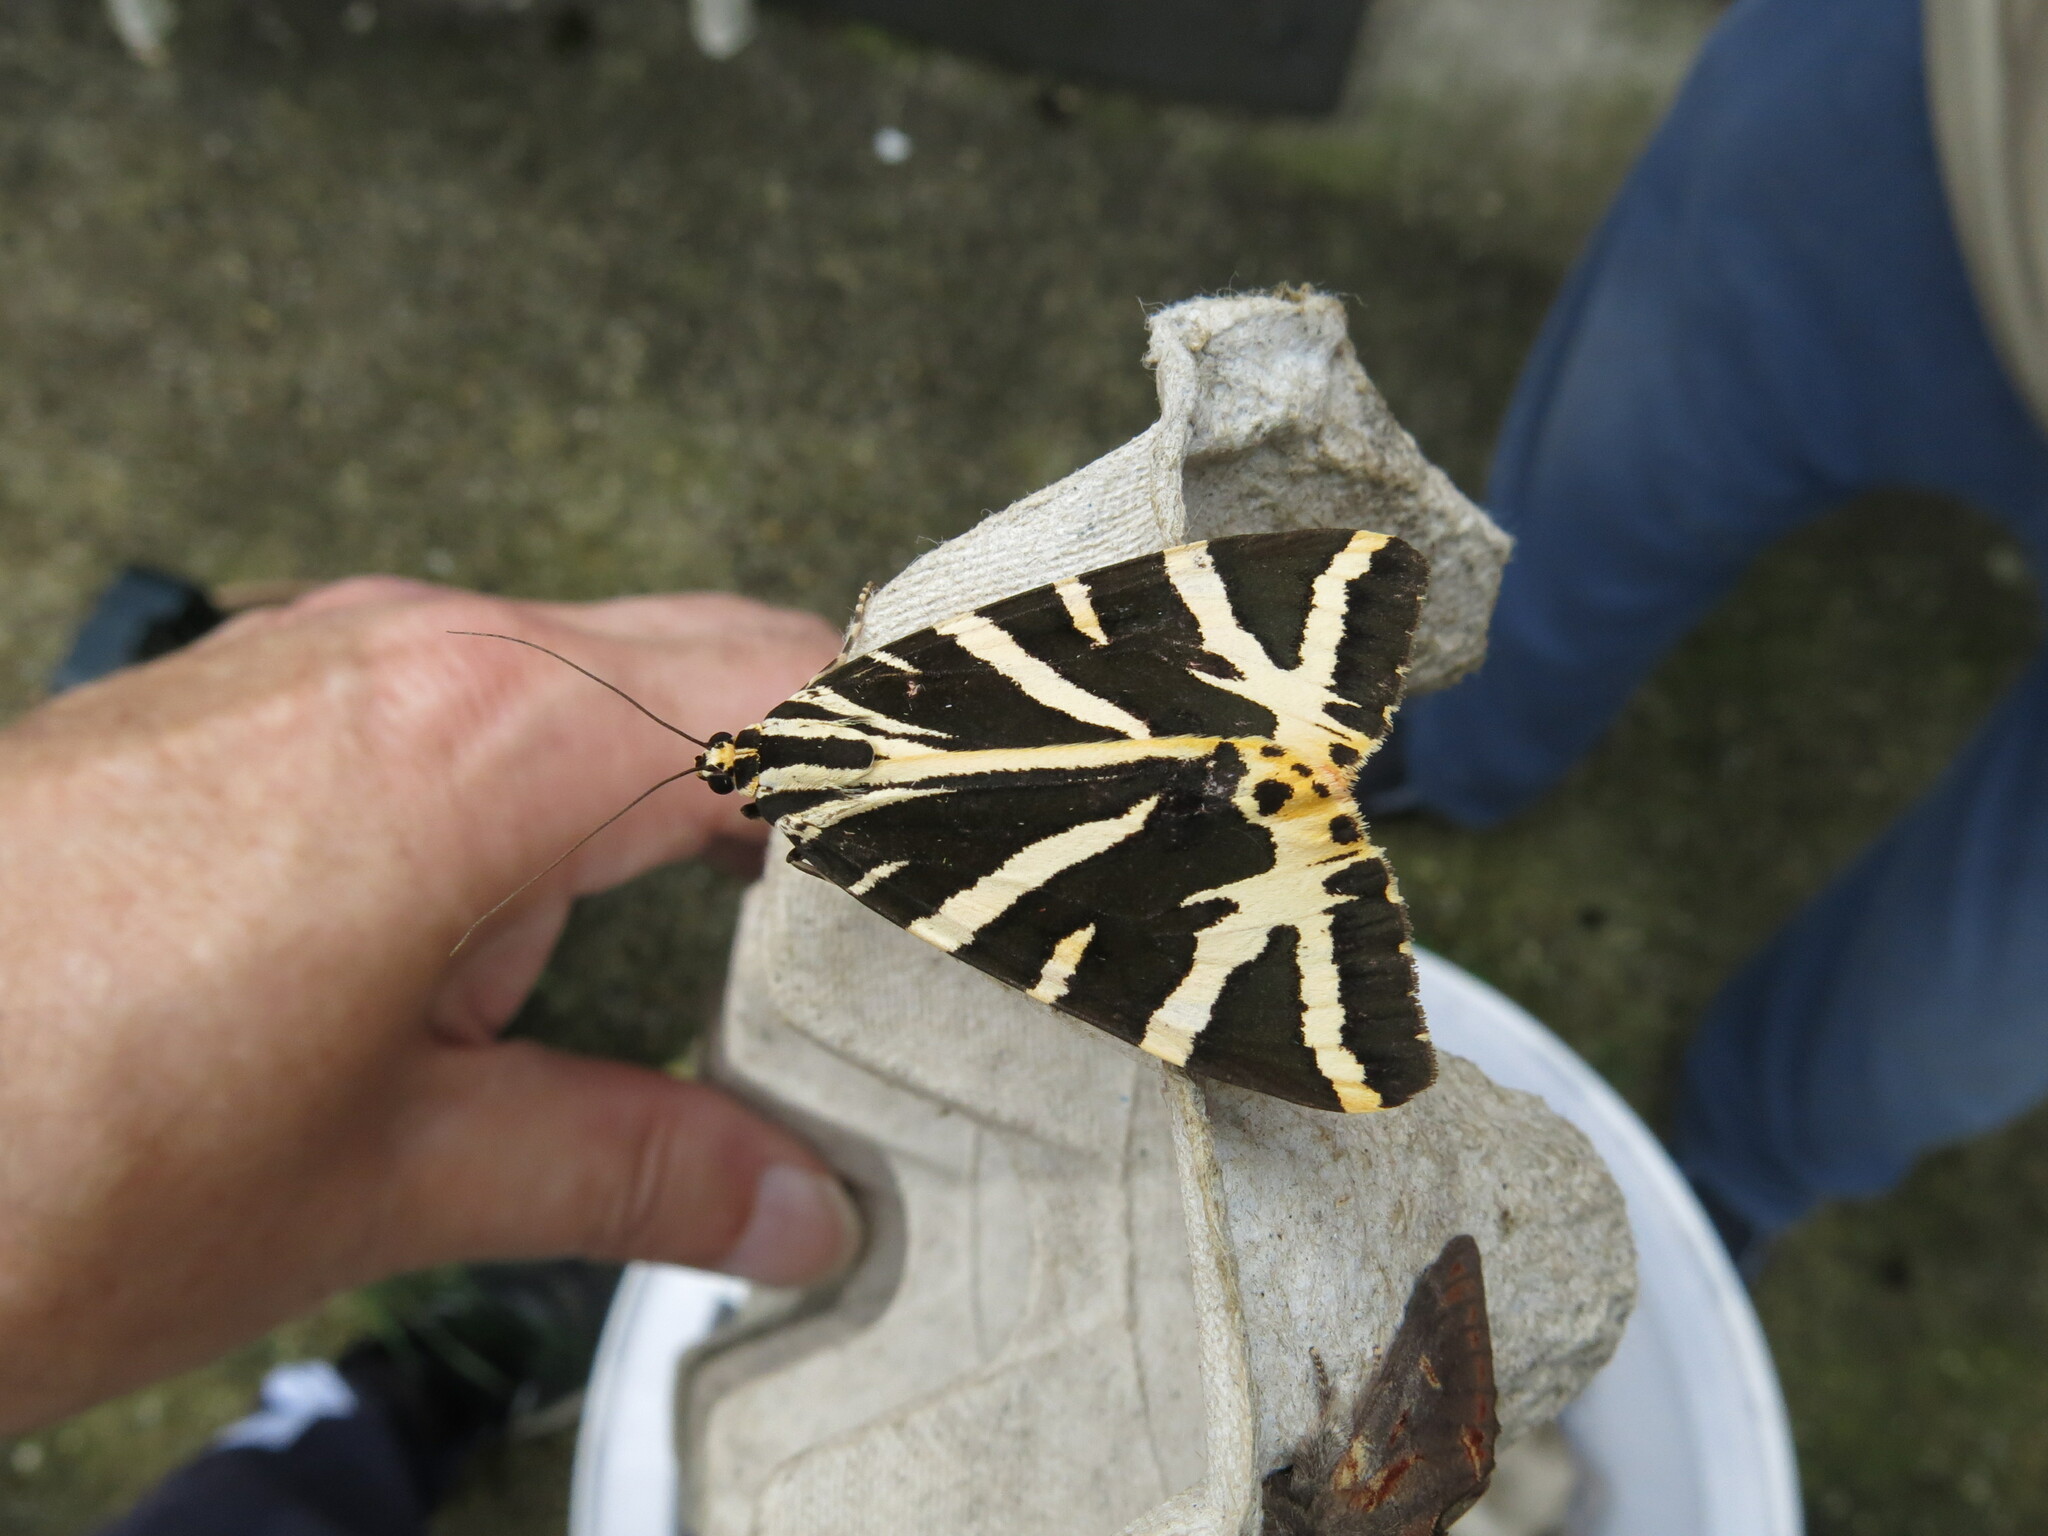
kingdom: Animalia
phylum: Arthropoda
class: Insecta
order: Lepidoptera
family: Erebidae
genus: Euplagia
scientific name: Euplagia quadripunctaria
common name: Jersey tiger
